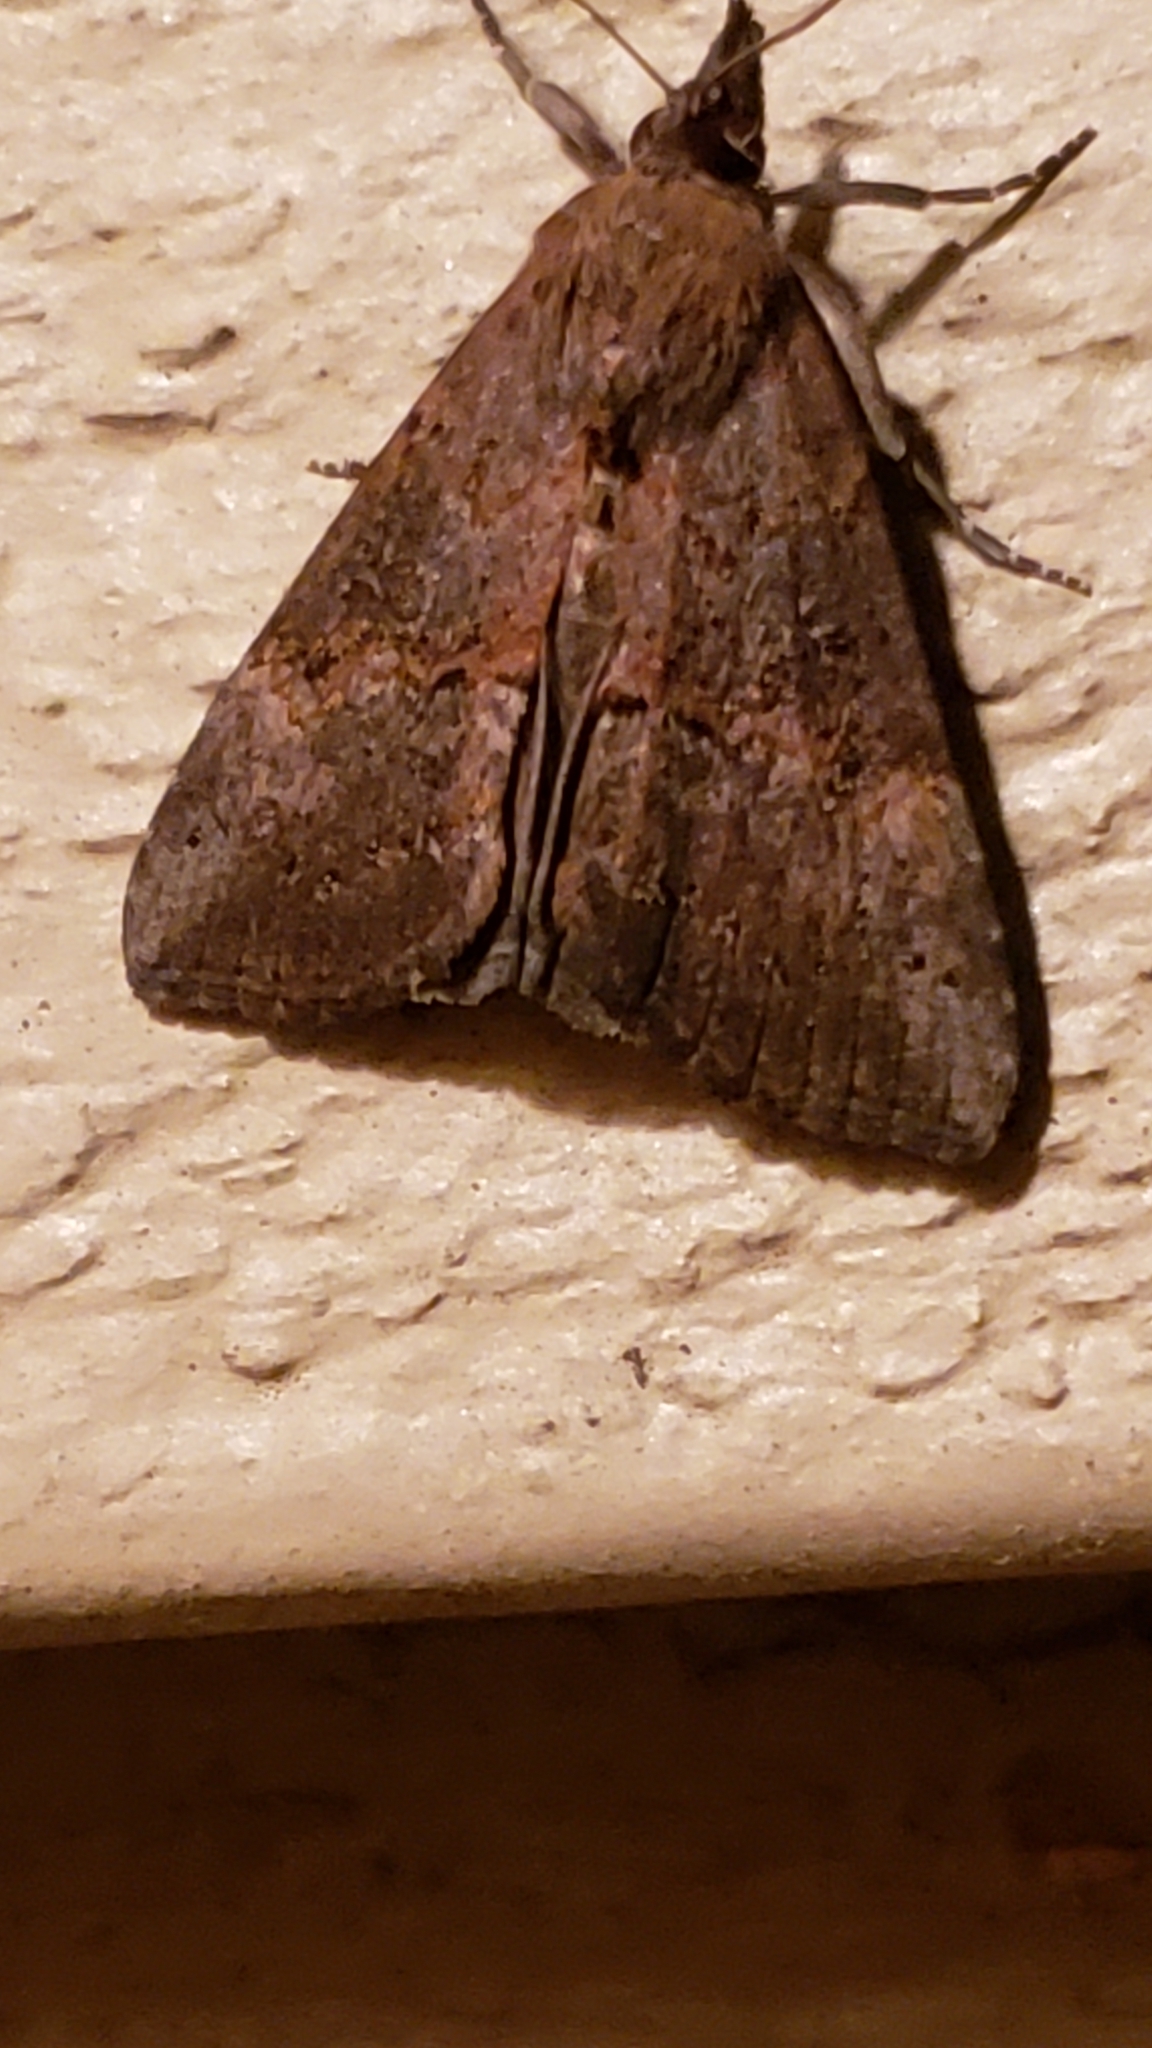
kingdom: Animalia
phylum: Arthropoda
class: Insecta
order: Lepidoptera
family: Erebidae
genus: Hypena
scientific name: Hypena scabra
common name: Green cloverworm
